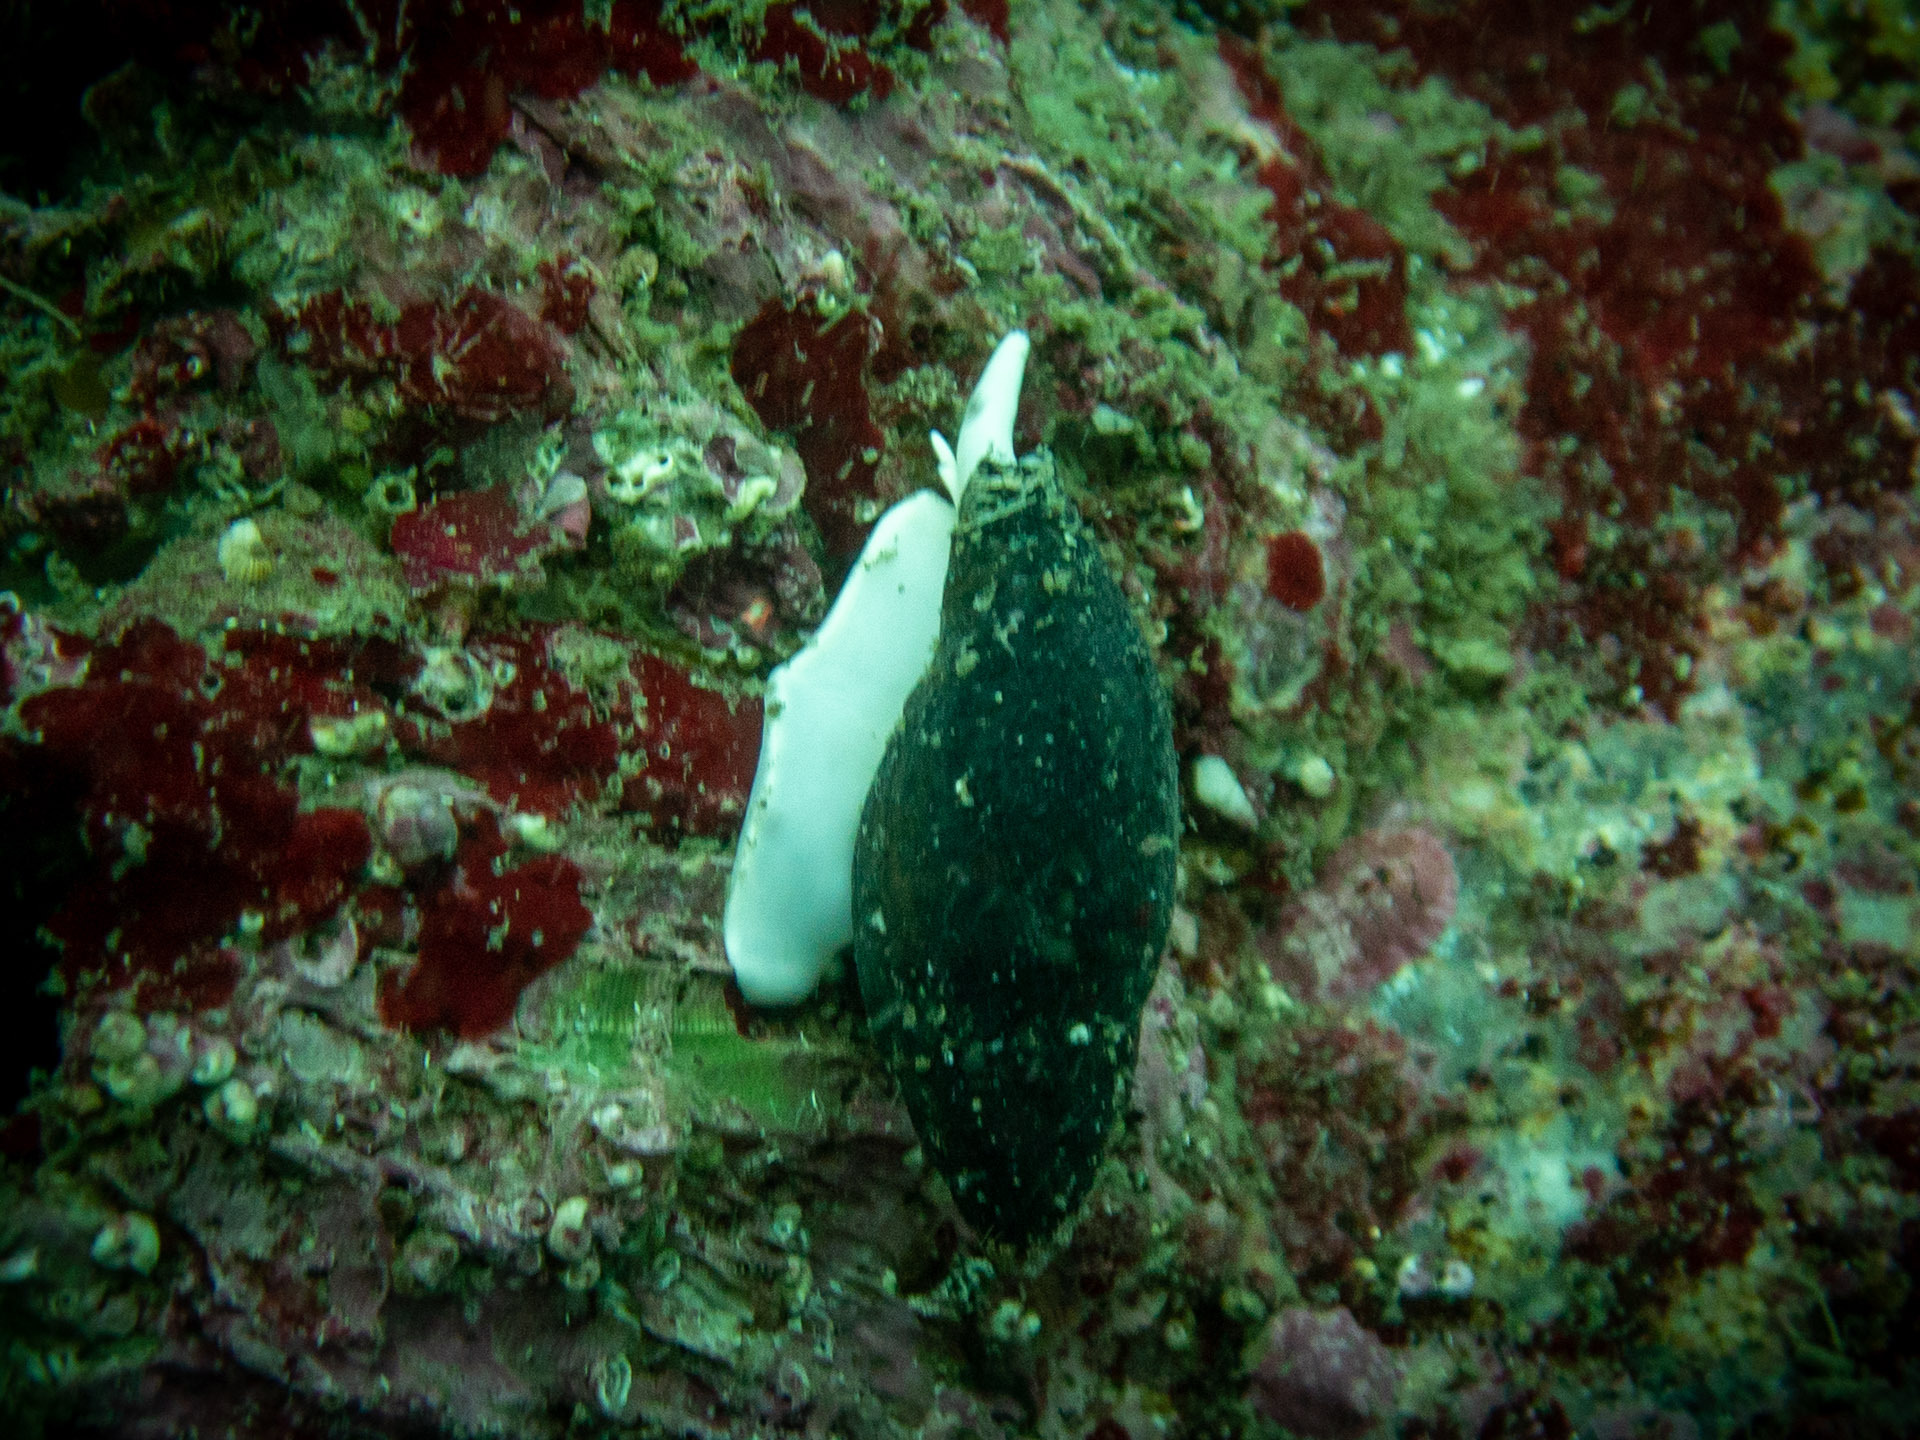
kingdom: Animalia
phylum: Mollusca
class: Gastropoda
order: Neogastropoda
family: Mitridae
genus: Atrimitra
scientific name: Atrimitra idae
